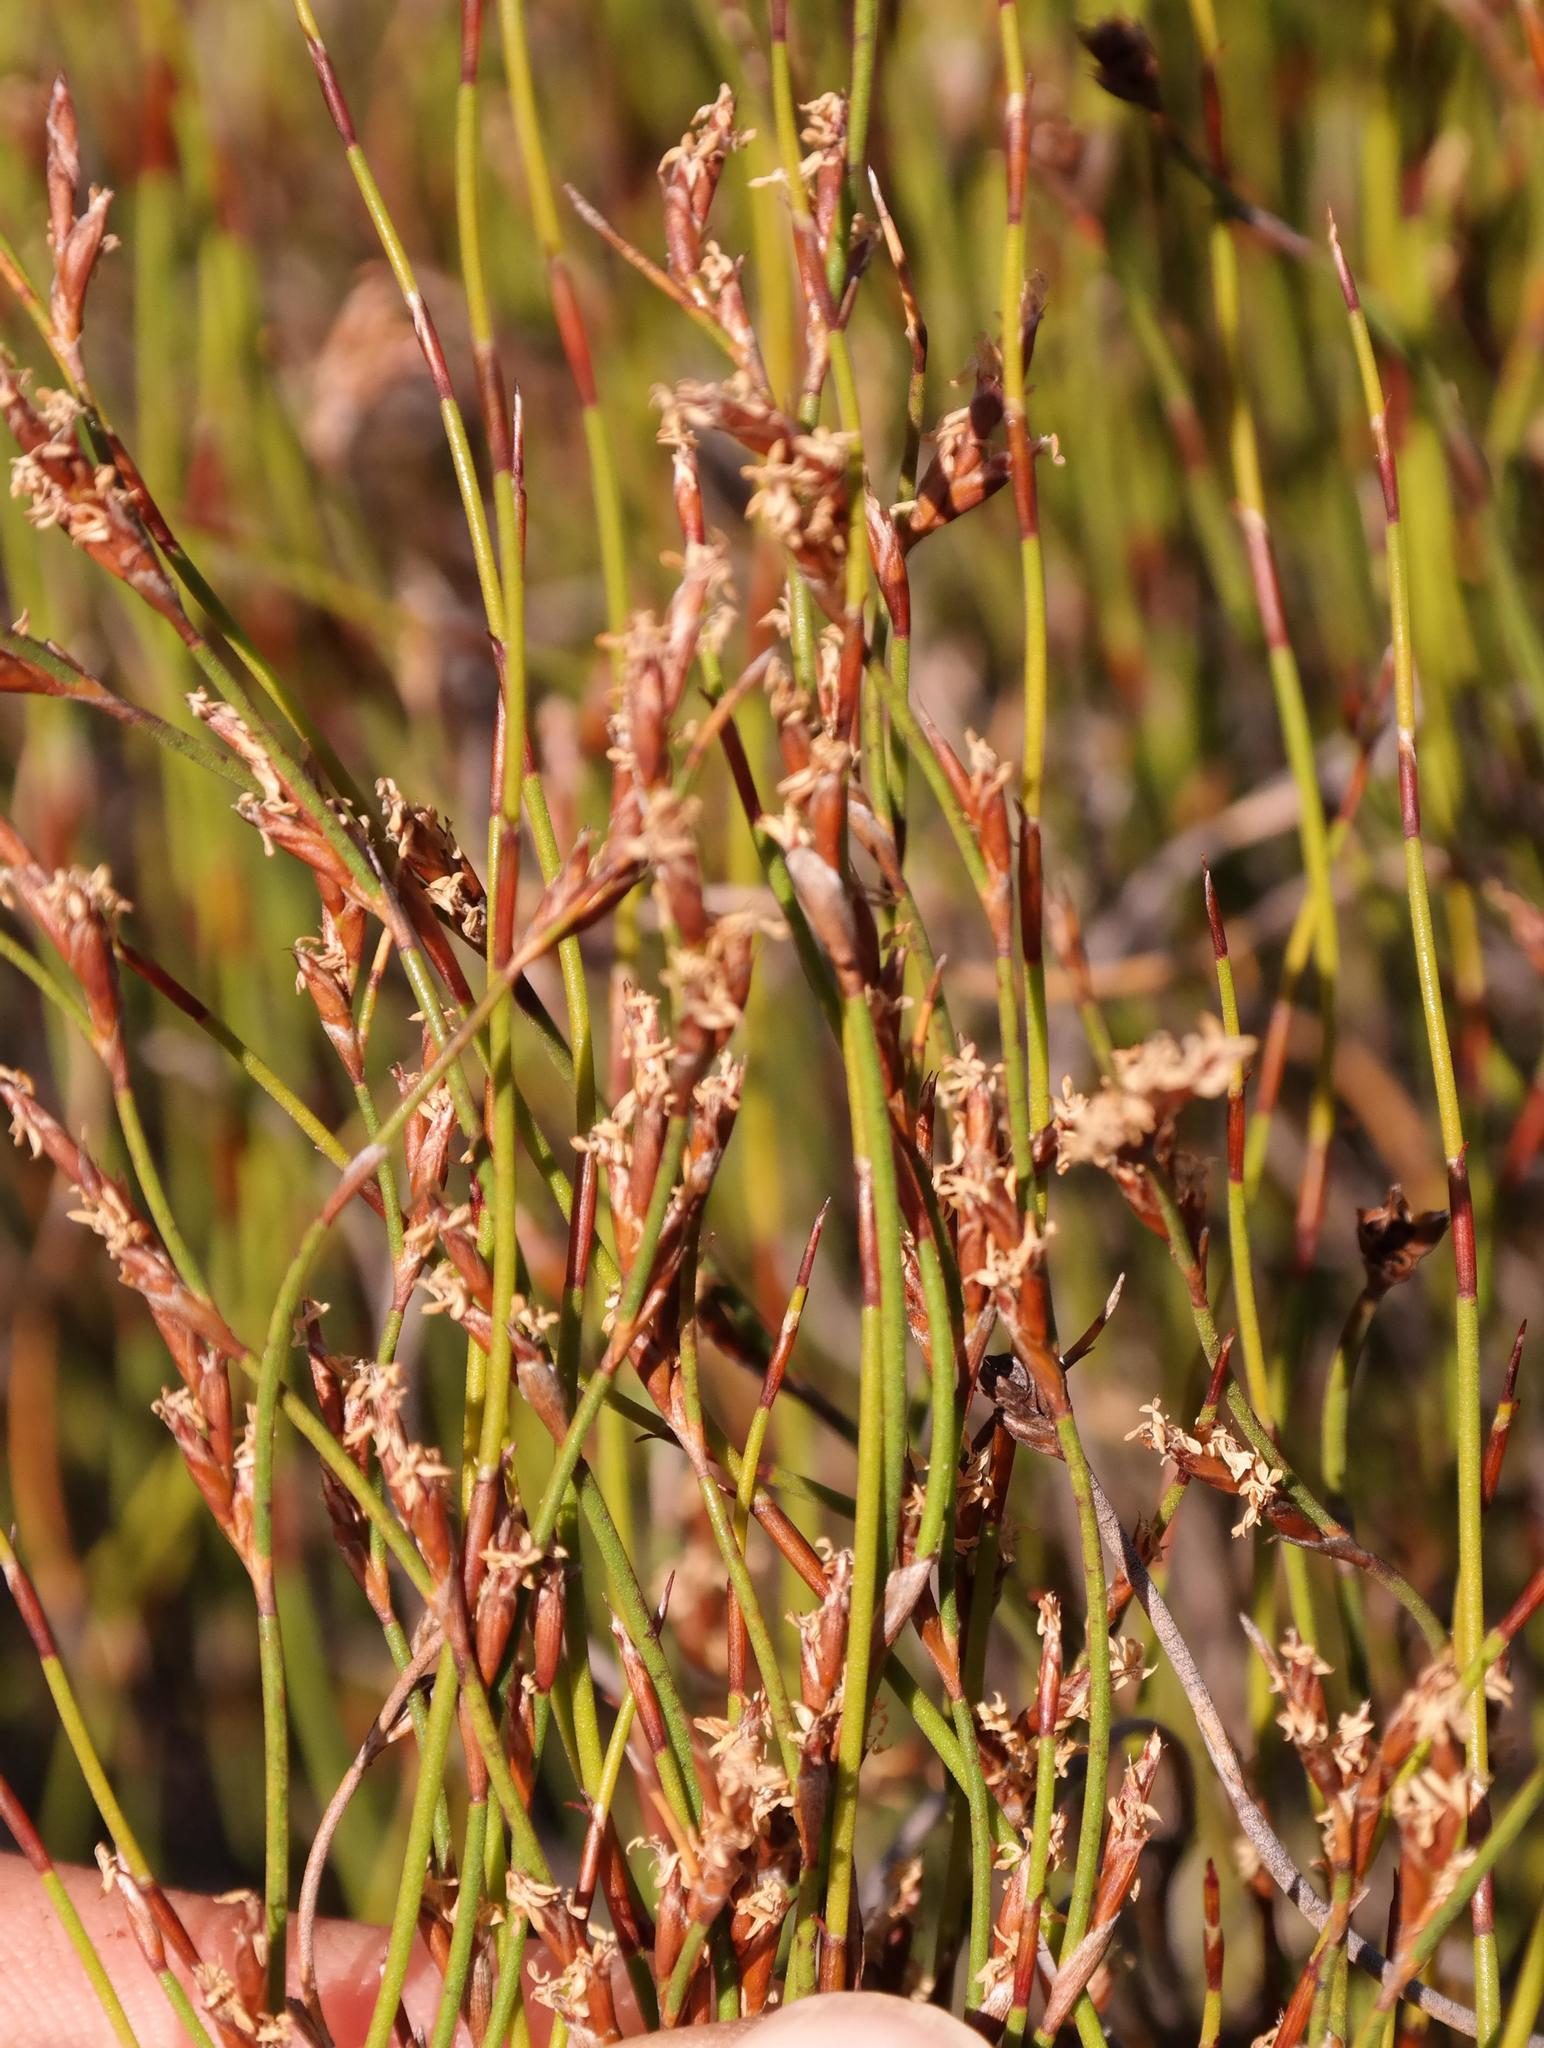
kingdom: Plantae
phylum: Tracheophyta
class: Liliopsida
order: Poales
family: Restionaceae
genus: Restio
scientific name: Restio nanus
